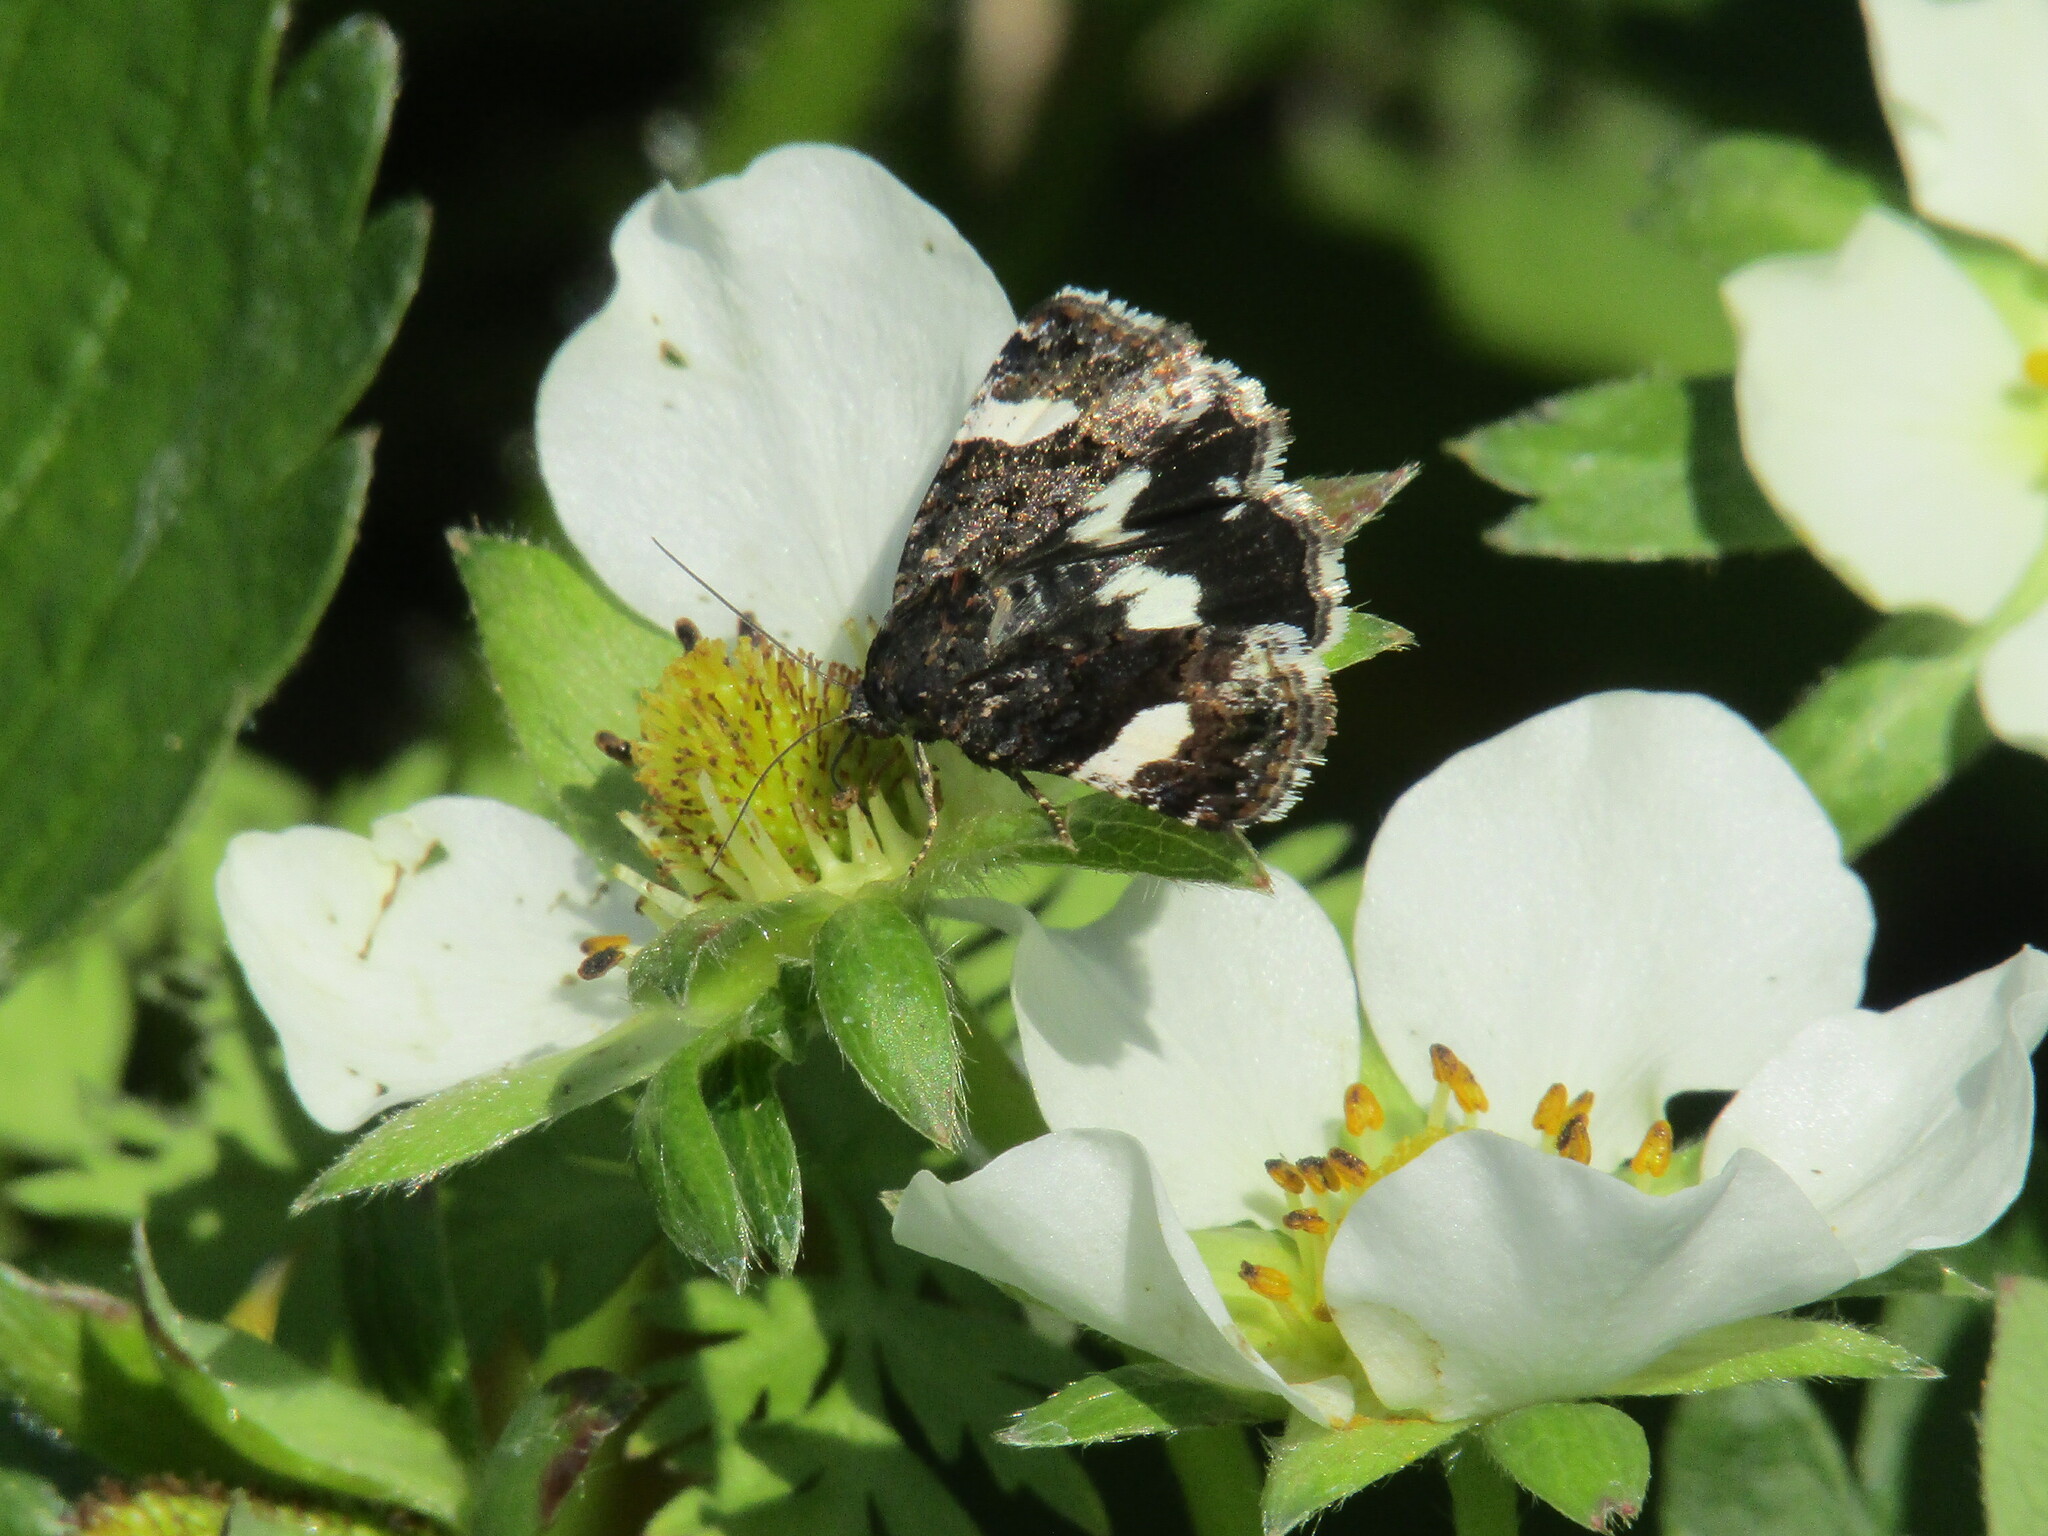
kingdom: Animalia
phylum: Arthropoda
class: Insecta
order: Lepidoptera
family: Erebidae
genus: Tyta
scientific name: Tyta luctuosa
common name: Four-spotted
